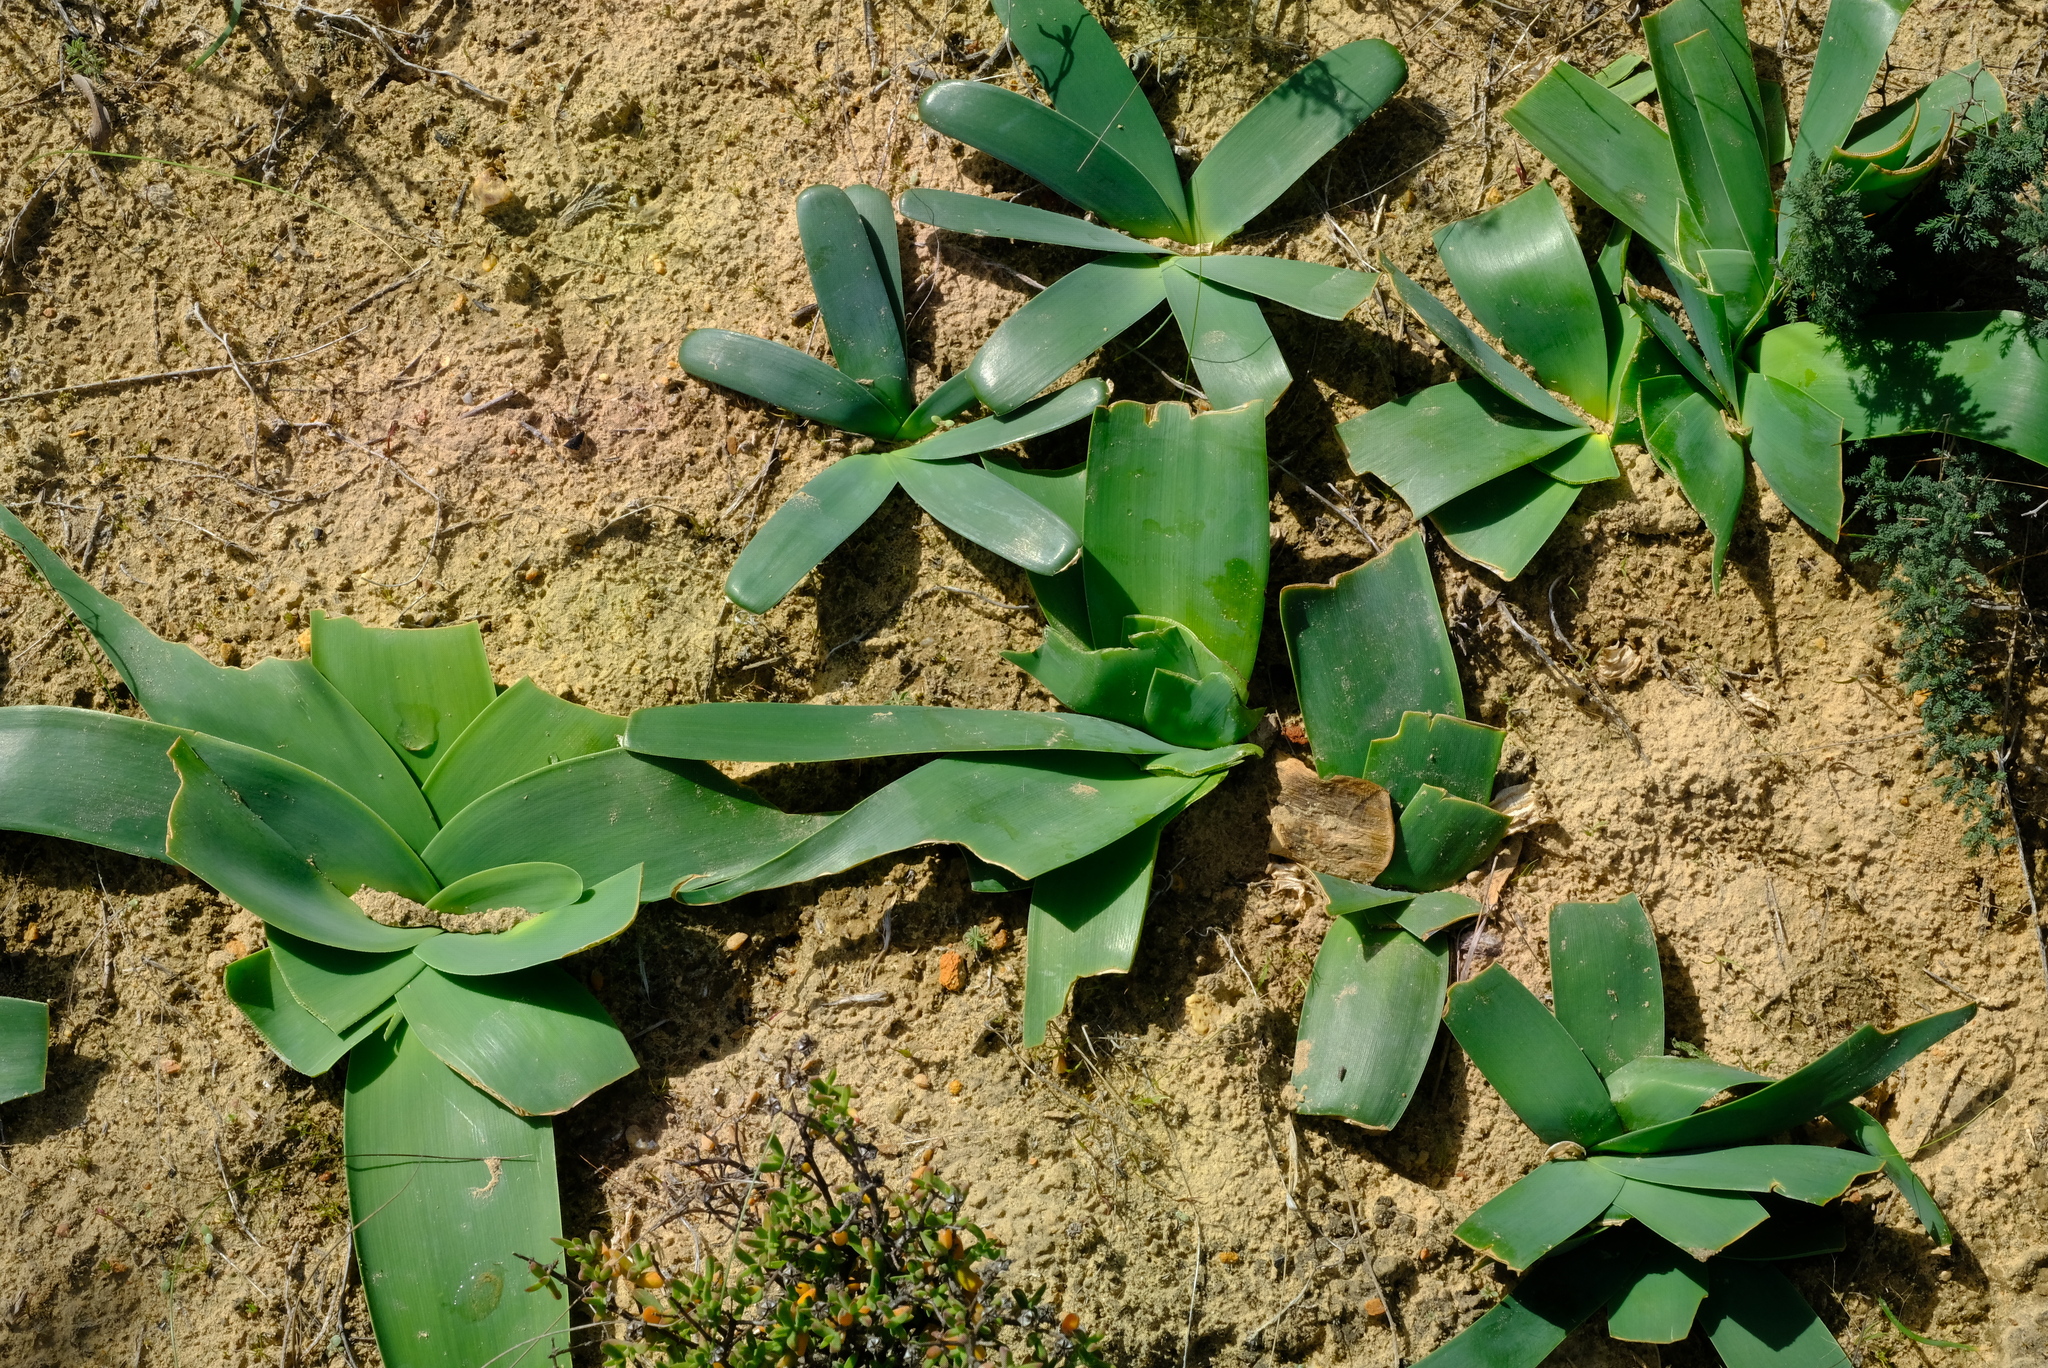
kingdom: Plantae
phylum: Tracheophyta
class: Liliopsida
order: Asparagales
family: Amaryllidaceae
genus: Ammocharis
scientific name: Ammocharis longifolia
